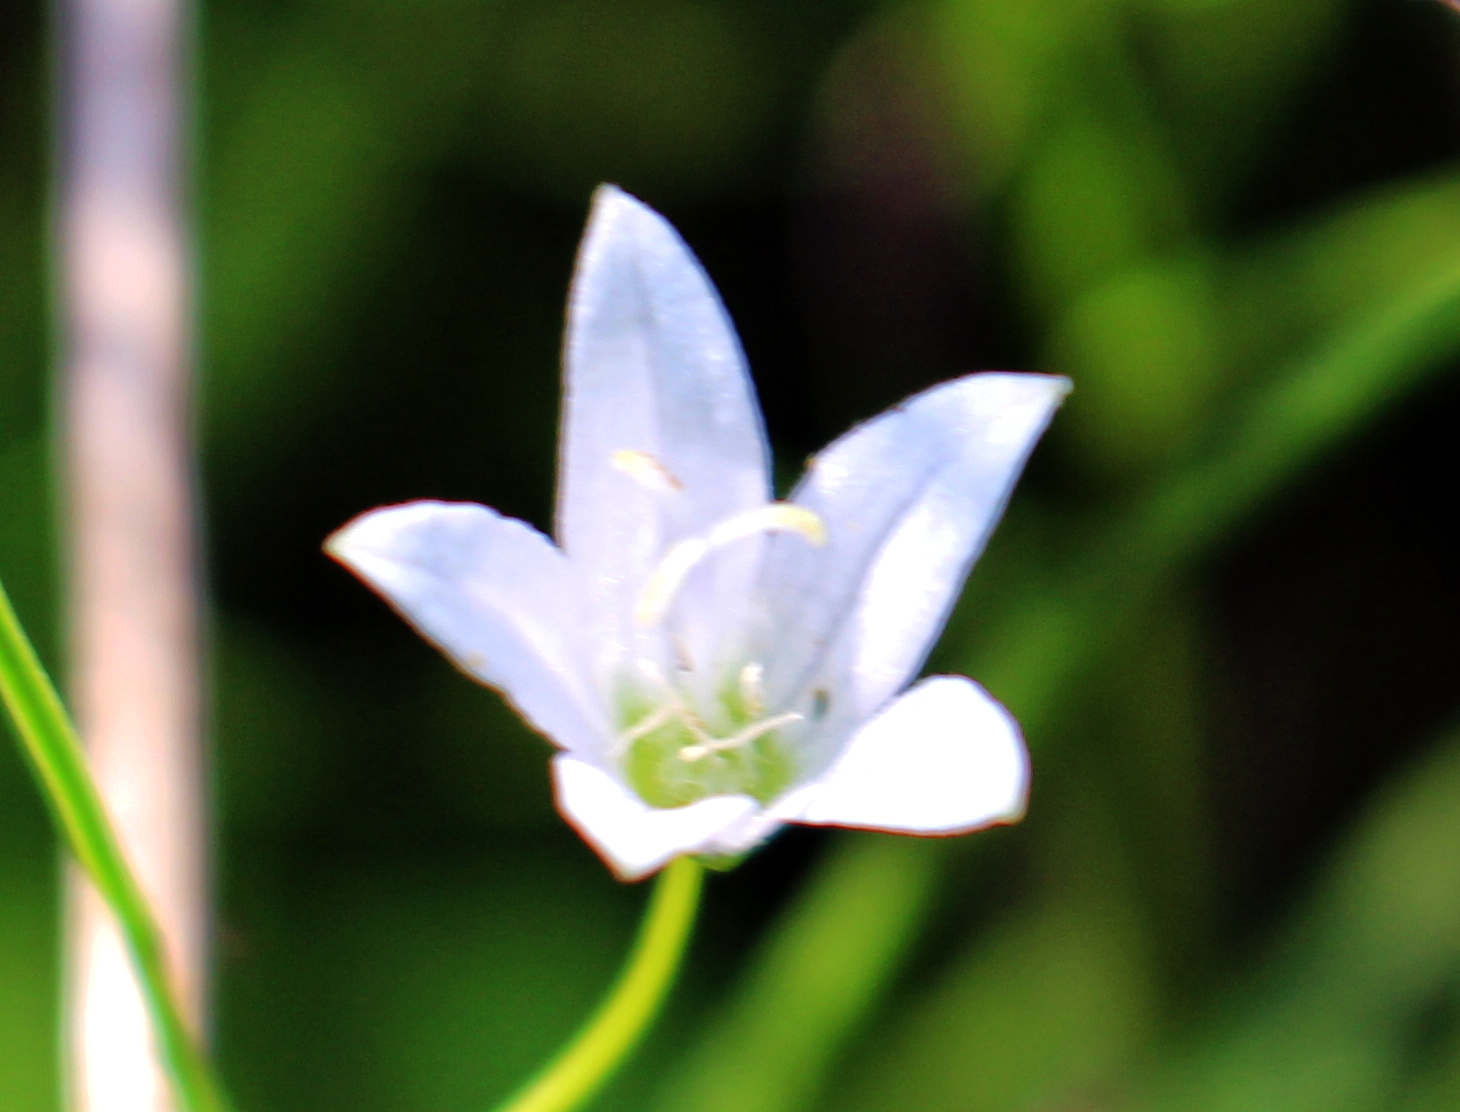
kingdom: Plantae
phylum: Tracheophyta
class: Magnoliopsida
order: Asterales
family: Campanulaceae
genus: Palustricodon
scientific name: Palustricodon aparinoides
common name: Bedstraw bellflower
